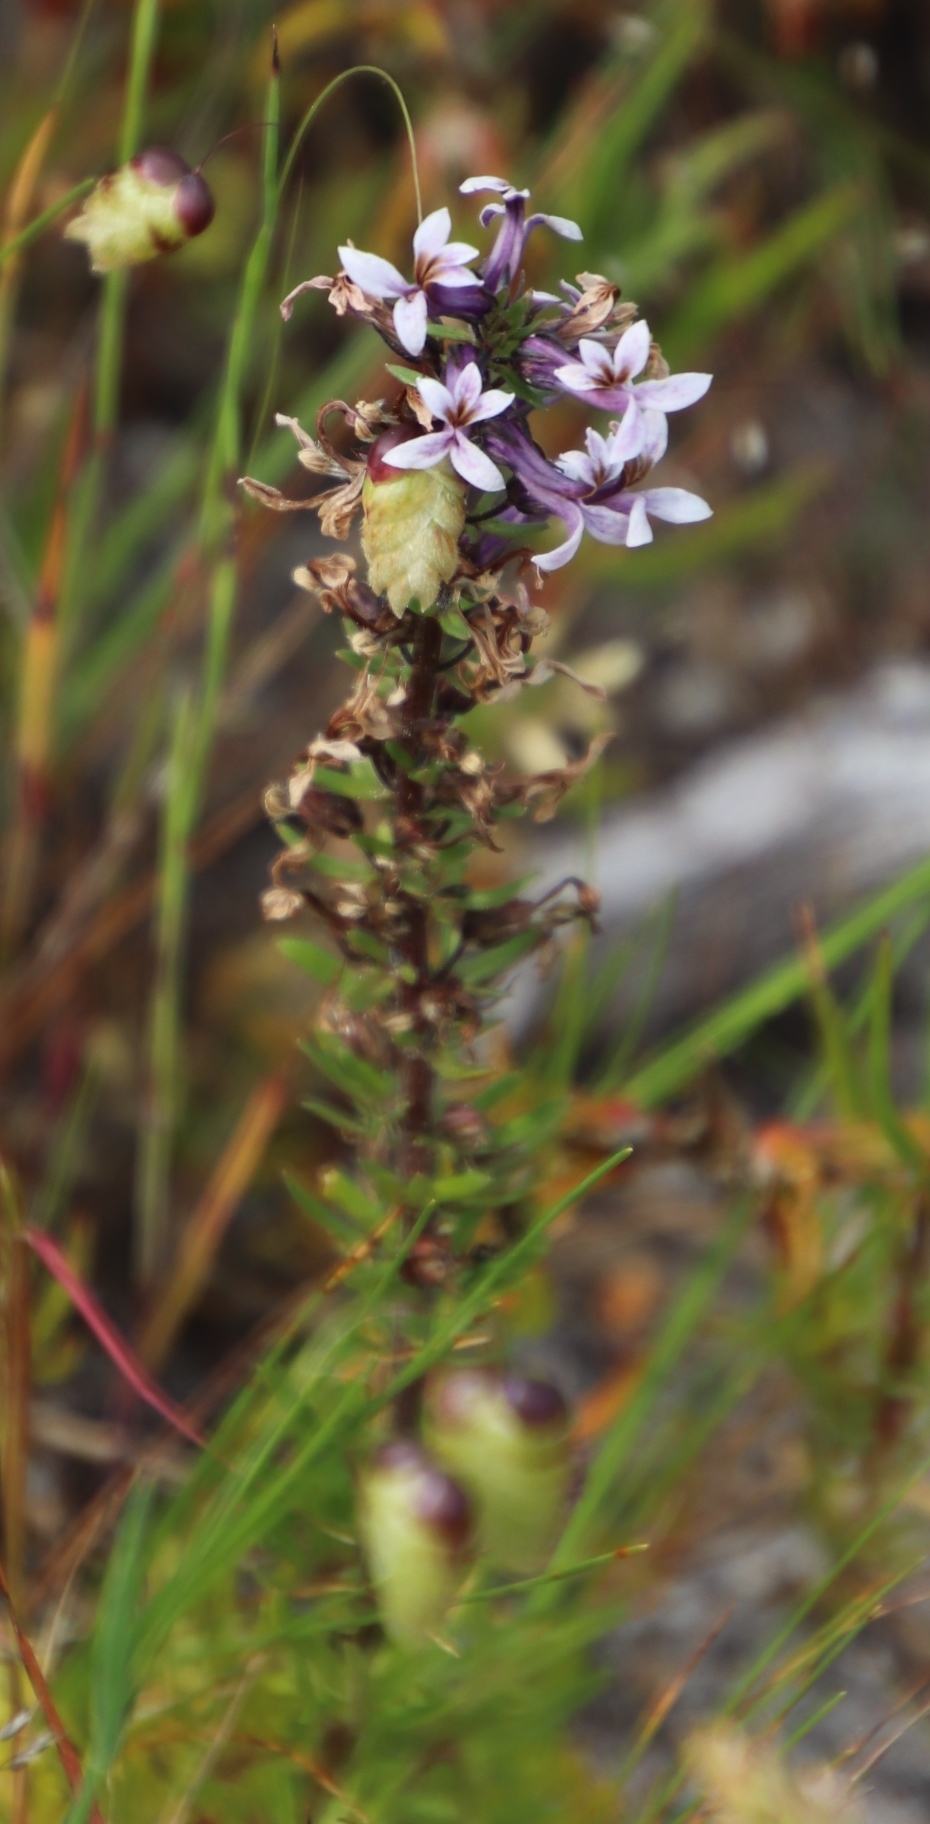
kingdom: Plantae
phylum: Tracheophyta
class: Magnoliopsida
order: Asterales
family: Campanulaceae
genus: Cyphia
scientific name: Cyphia bulbosa
